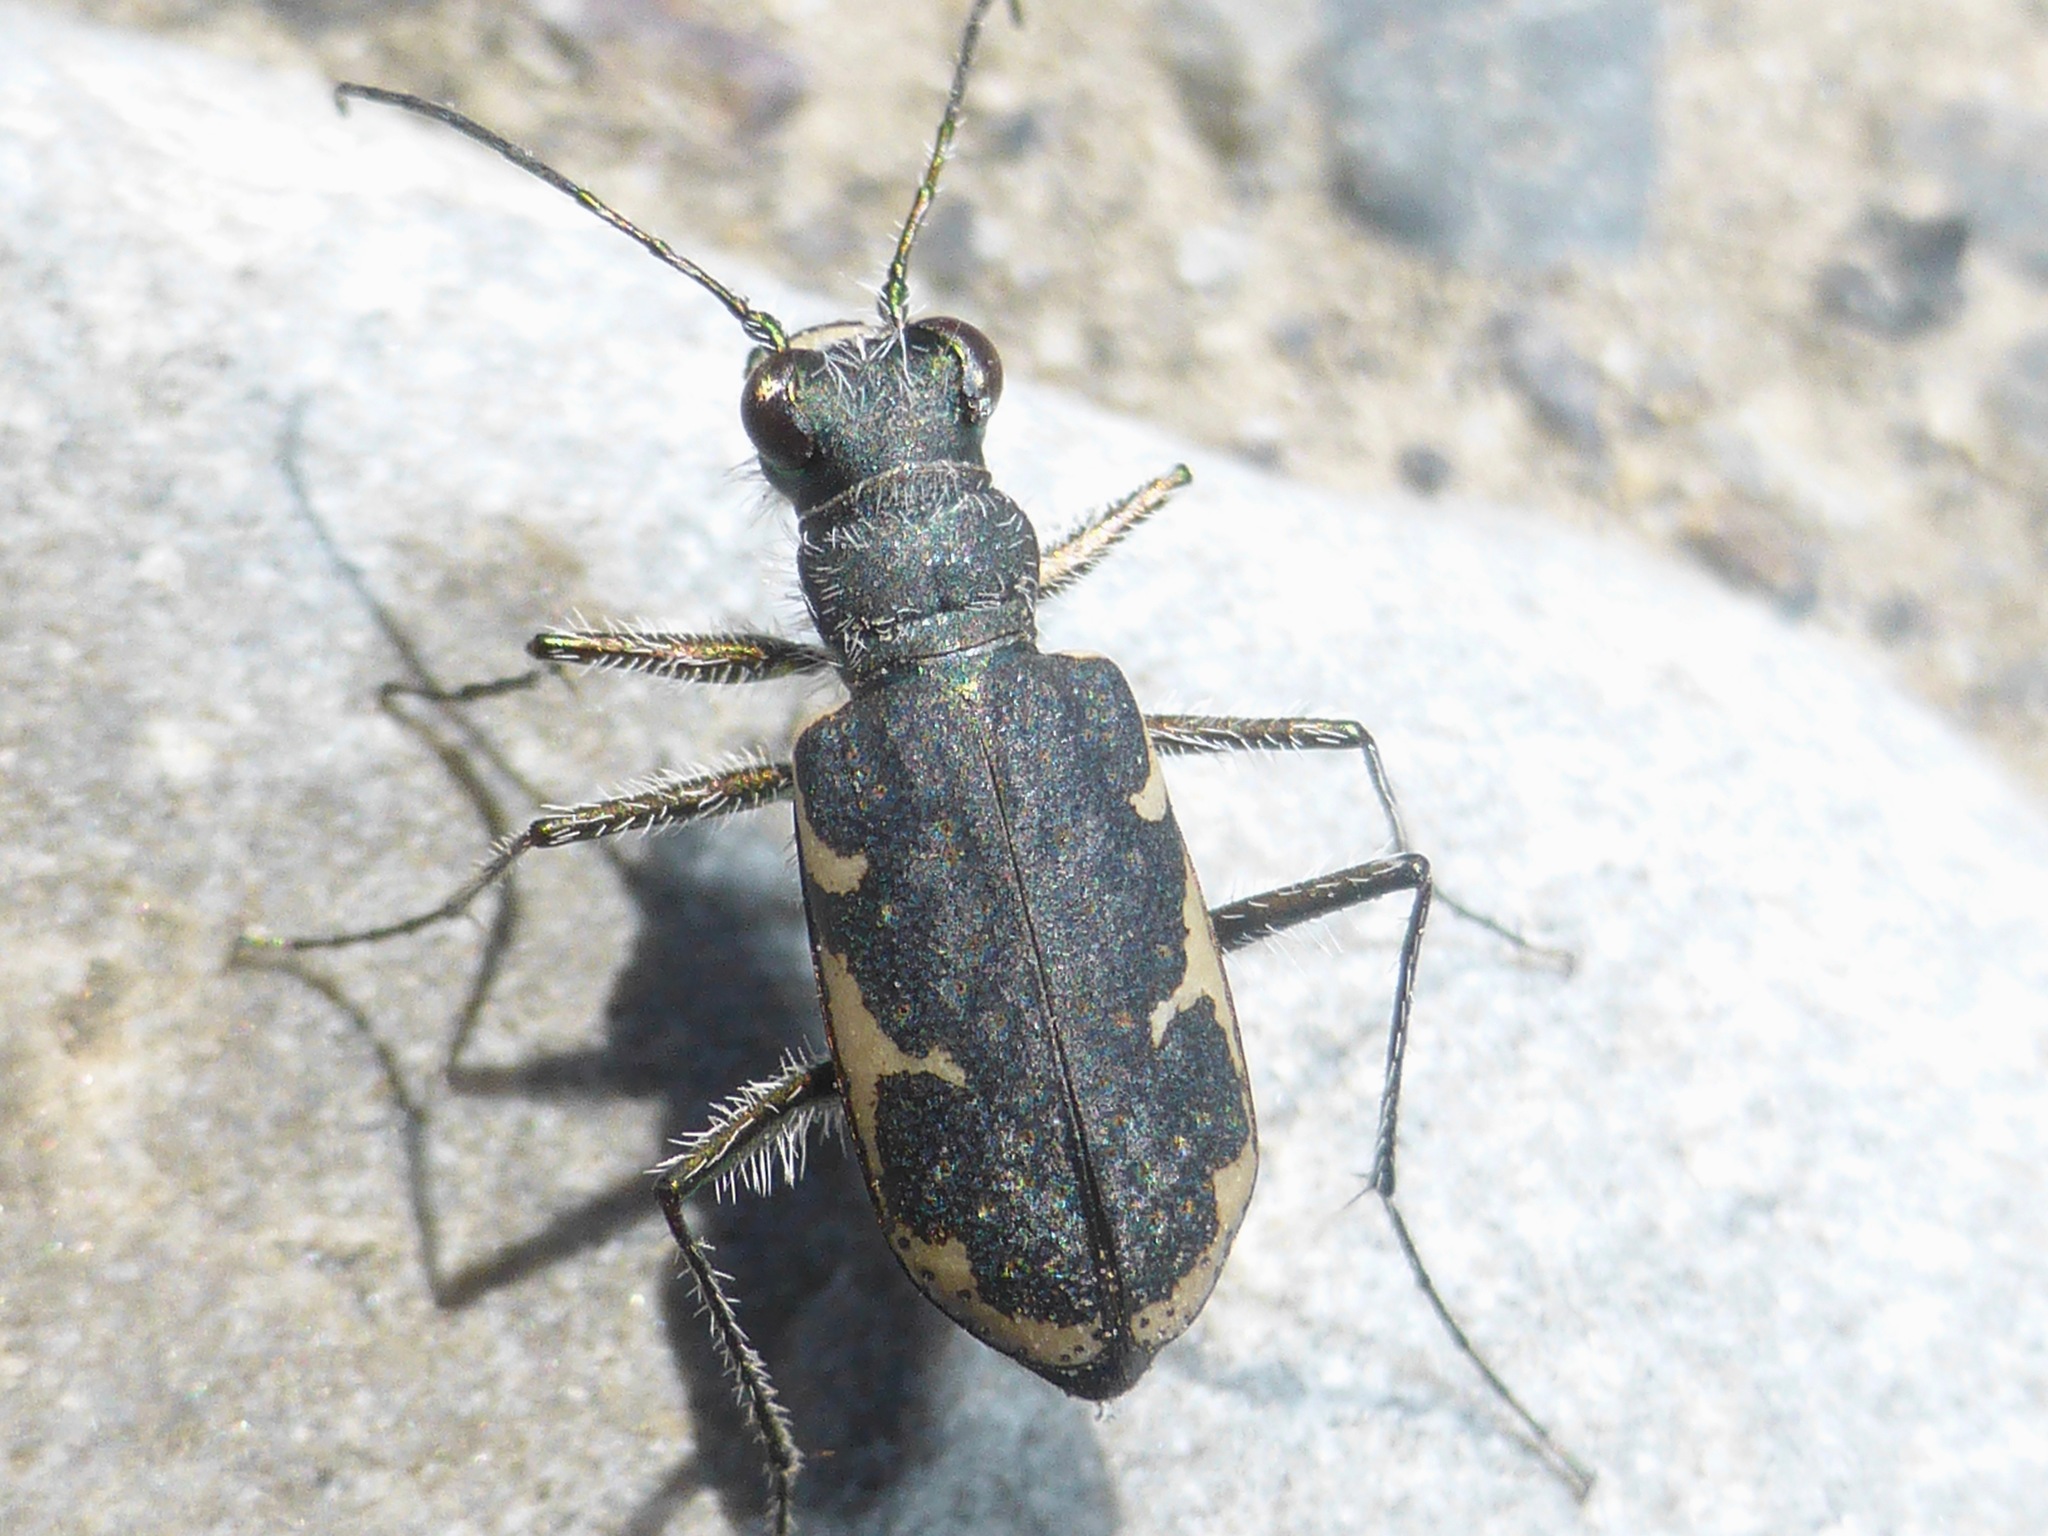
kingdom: Animalia
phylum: Arthropoda
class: Insecta
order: Coleoptera
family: Carabidae
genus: Zecicindela
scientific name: Zecicindela helmsi
